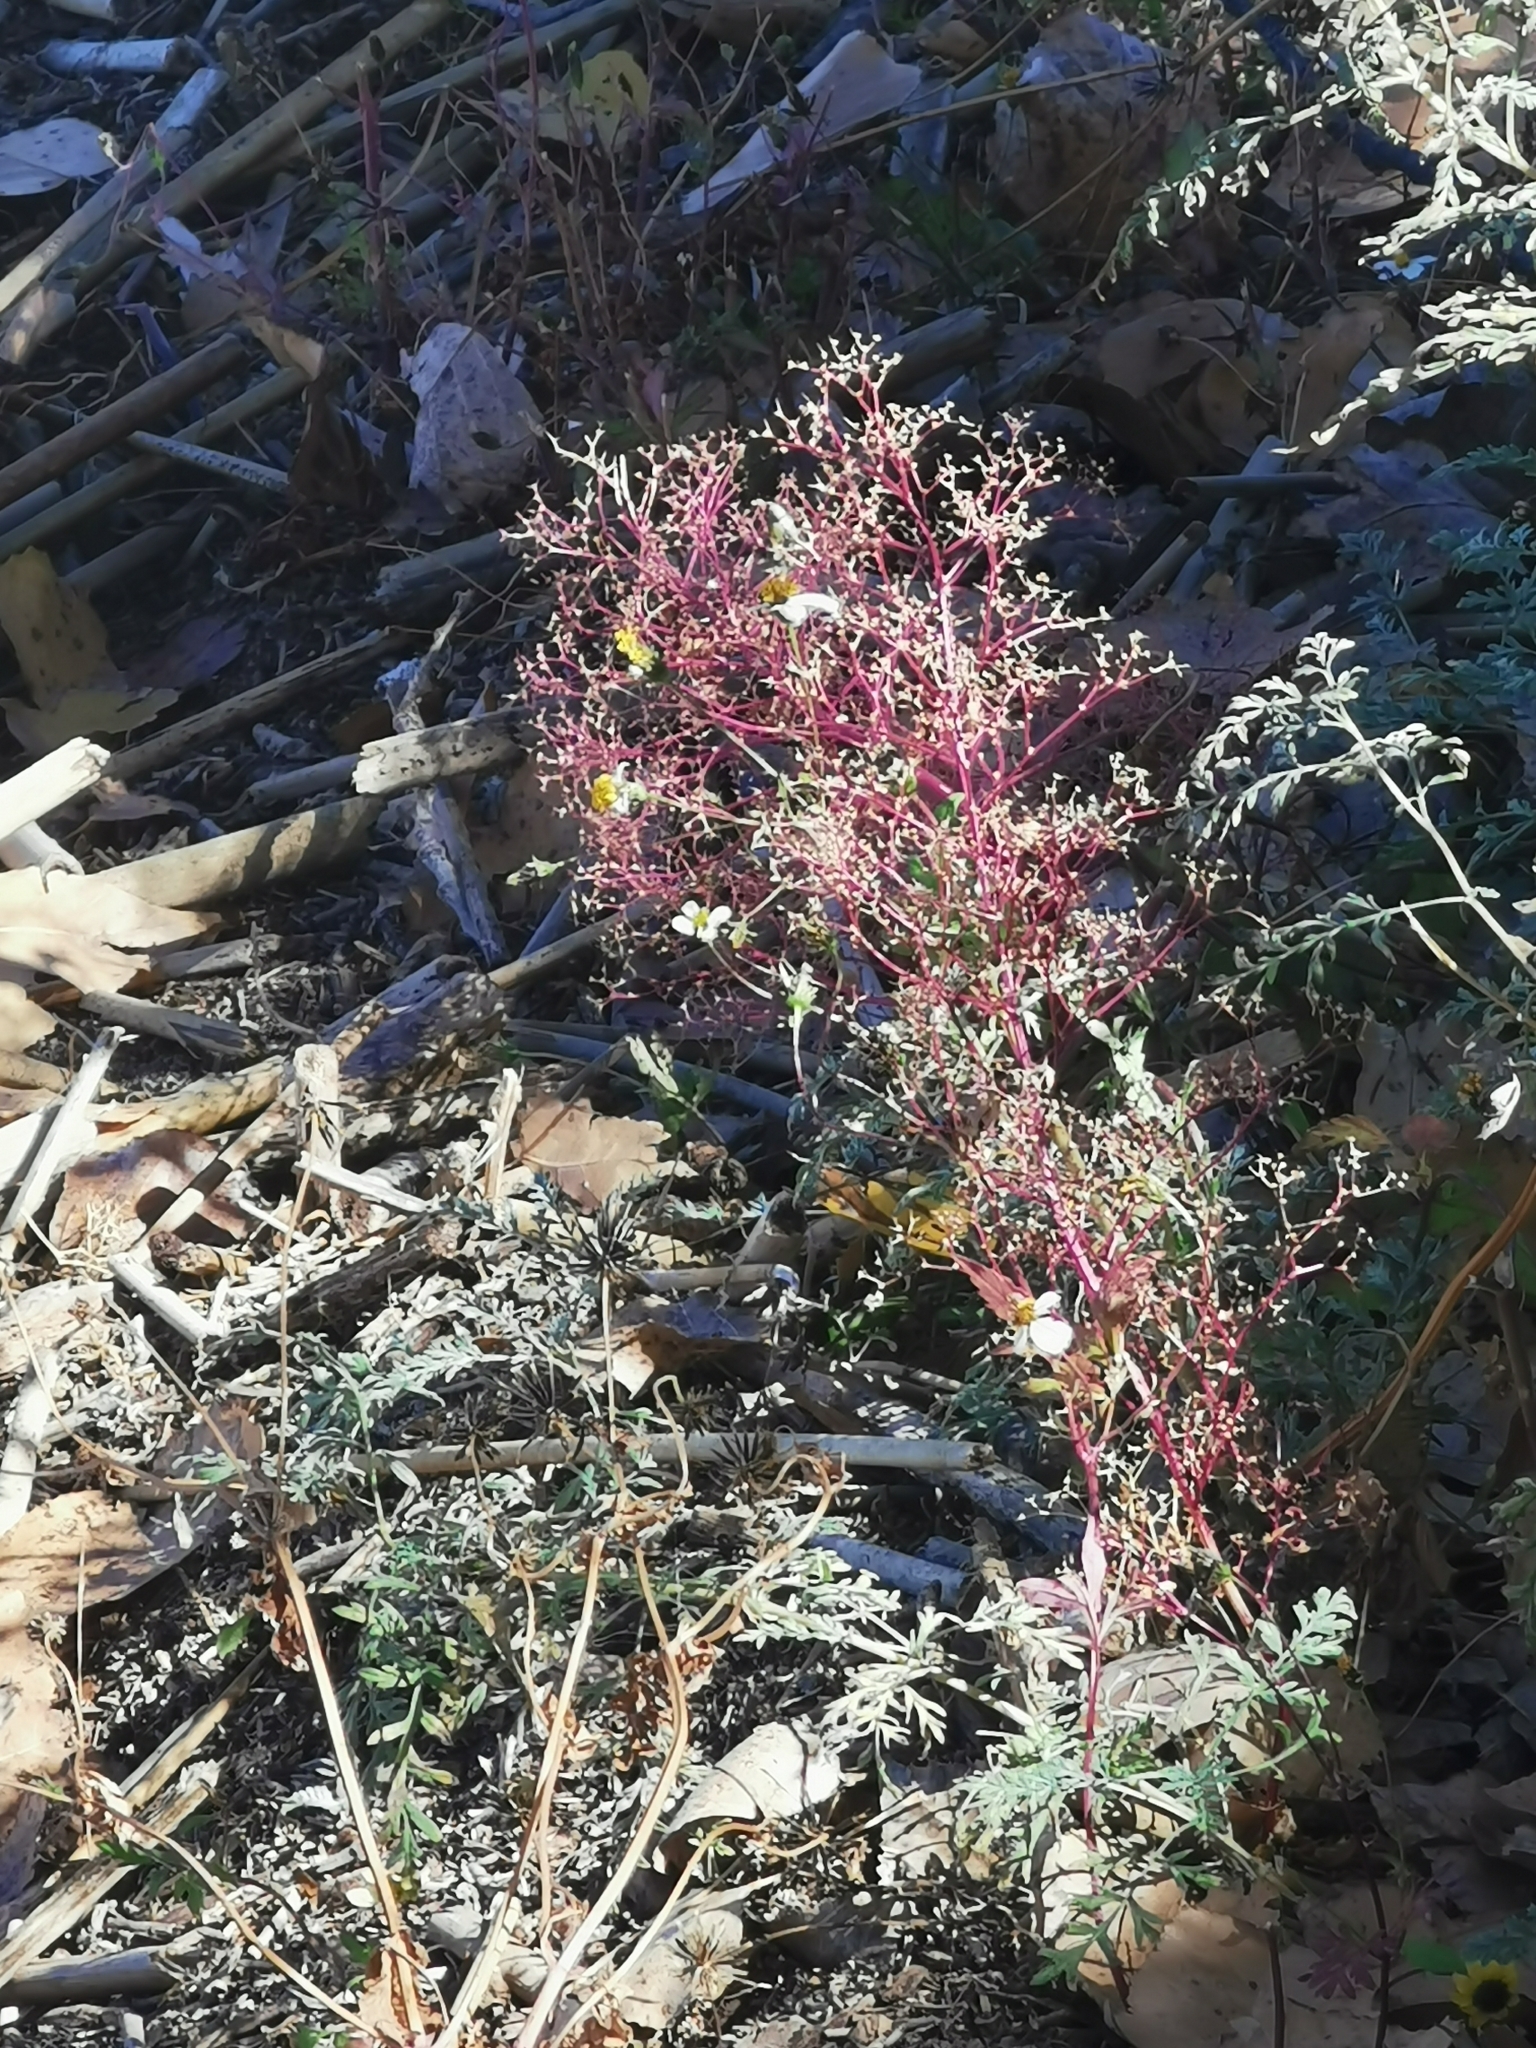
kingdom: Plantae
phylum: Tracheophyta
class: Magnoliopsida
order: Caryophyllales
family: Amaranthaceae
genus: Dysphania
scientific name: Dysphania incisa
